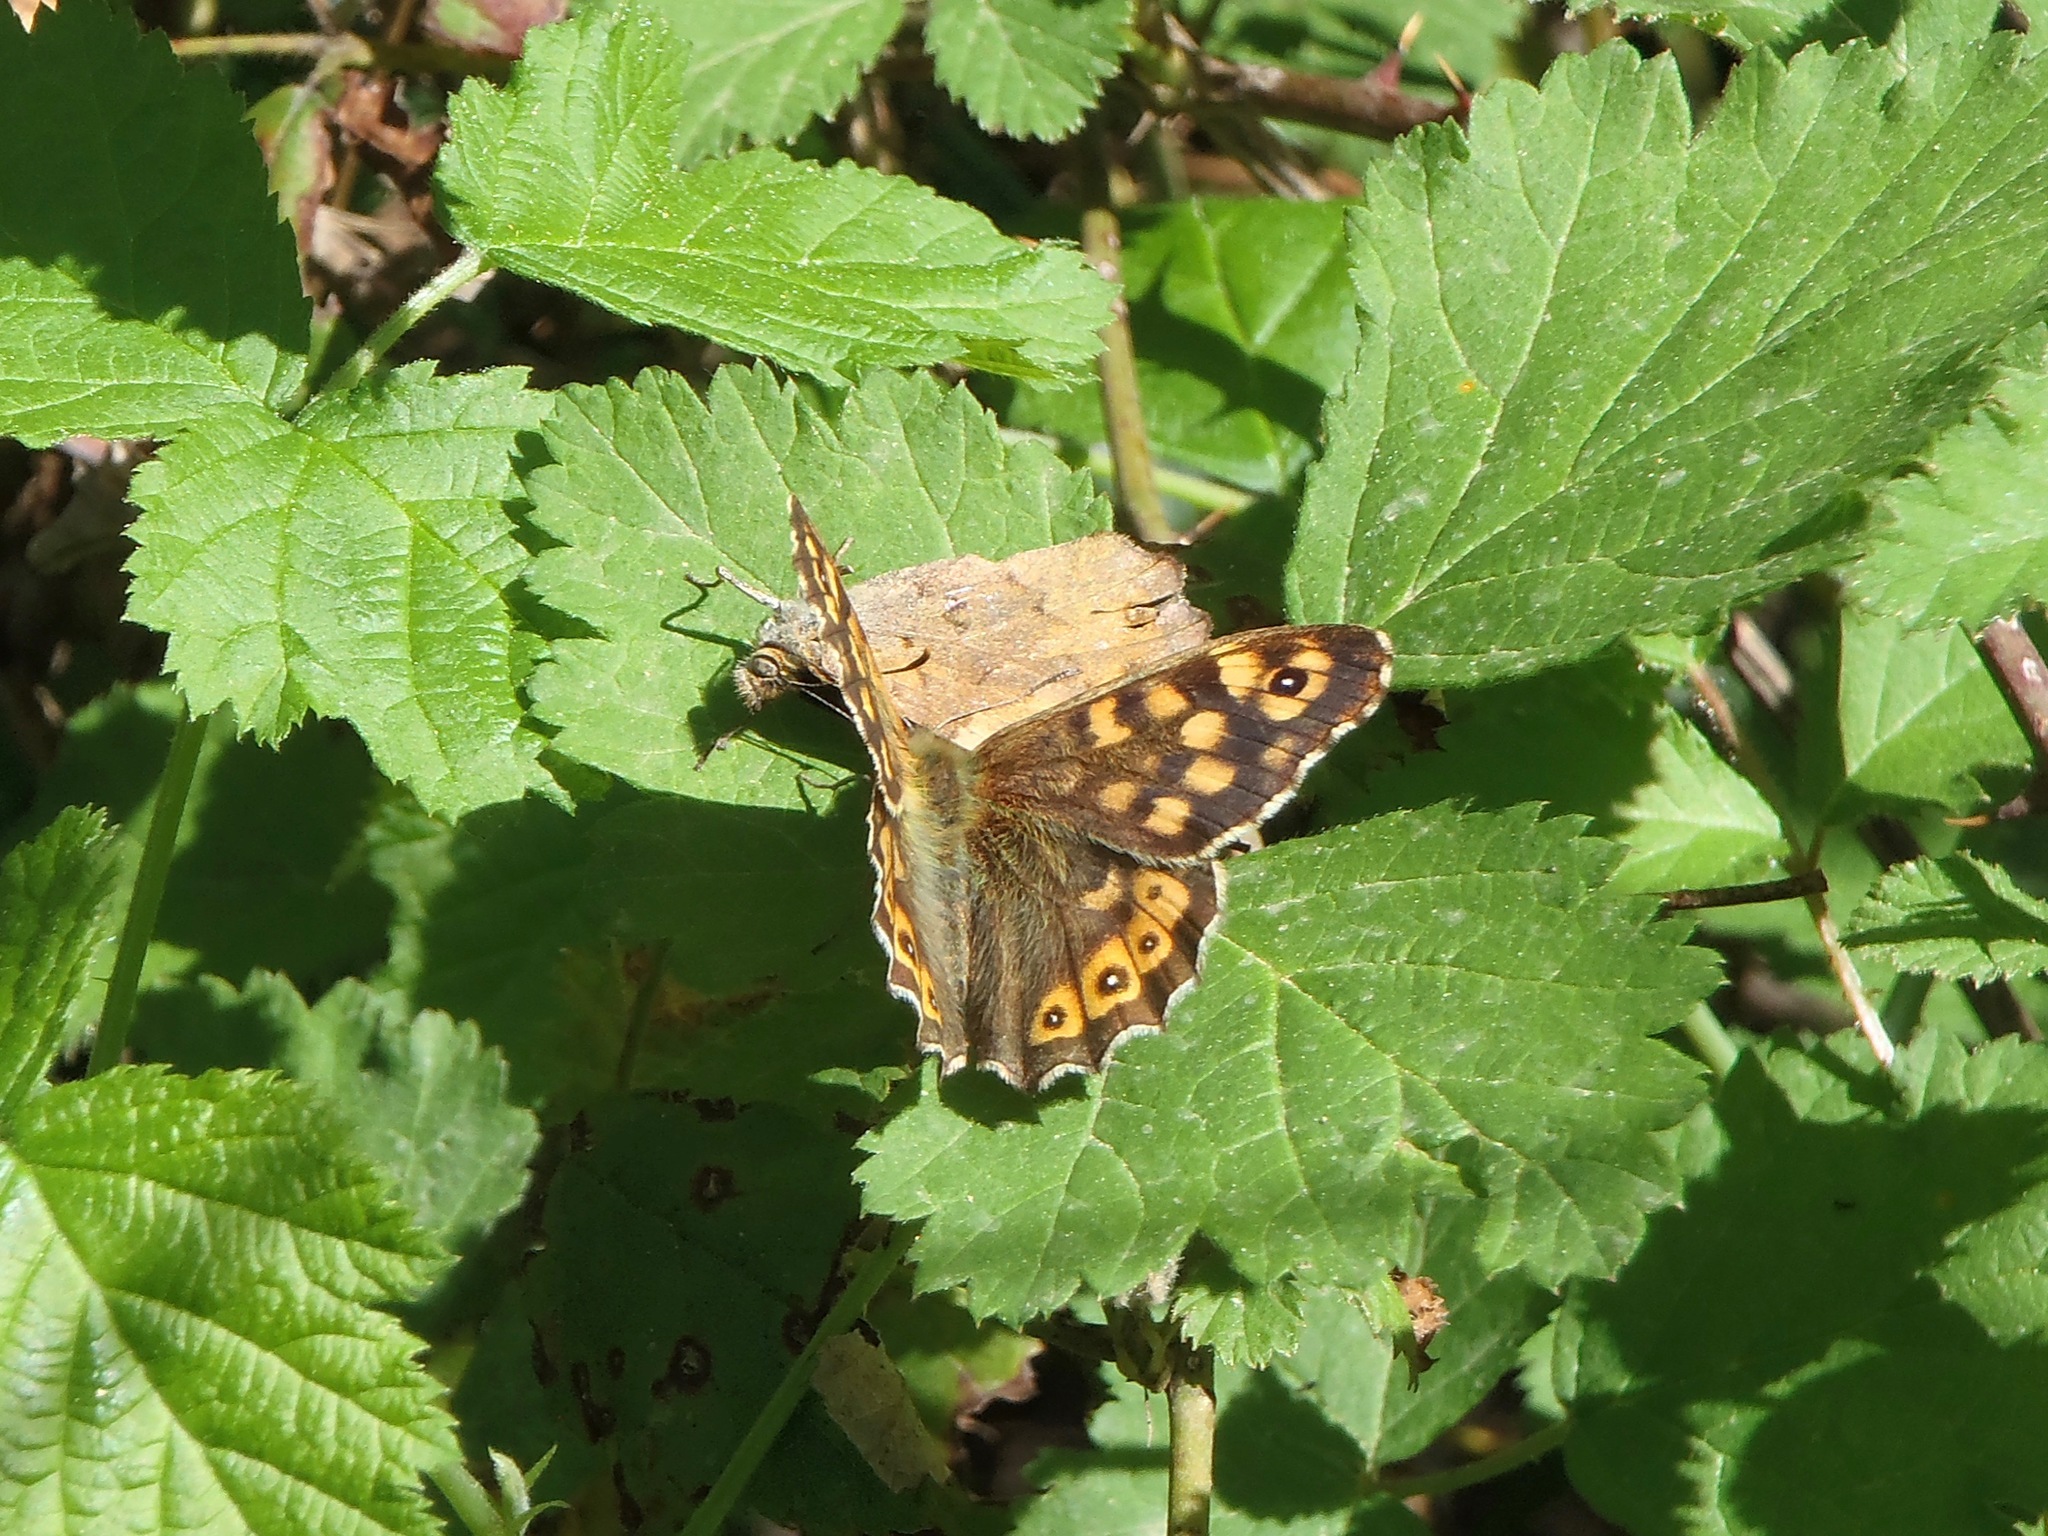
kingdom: Animalia
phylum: Arthropoda
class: Insecta
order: Lepidoptera
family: Nymphalidae
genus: Pararge
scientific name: Pararge aegeria
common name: Speckled wood
